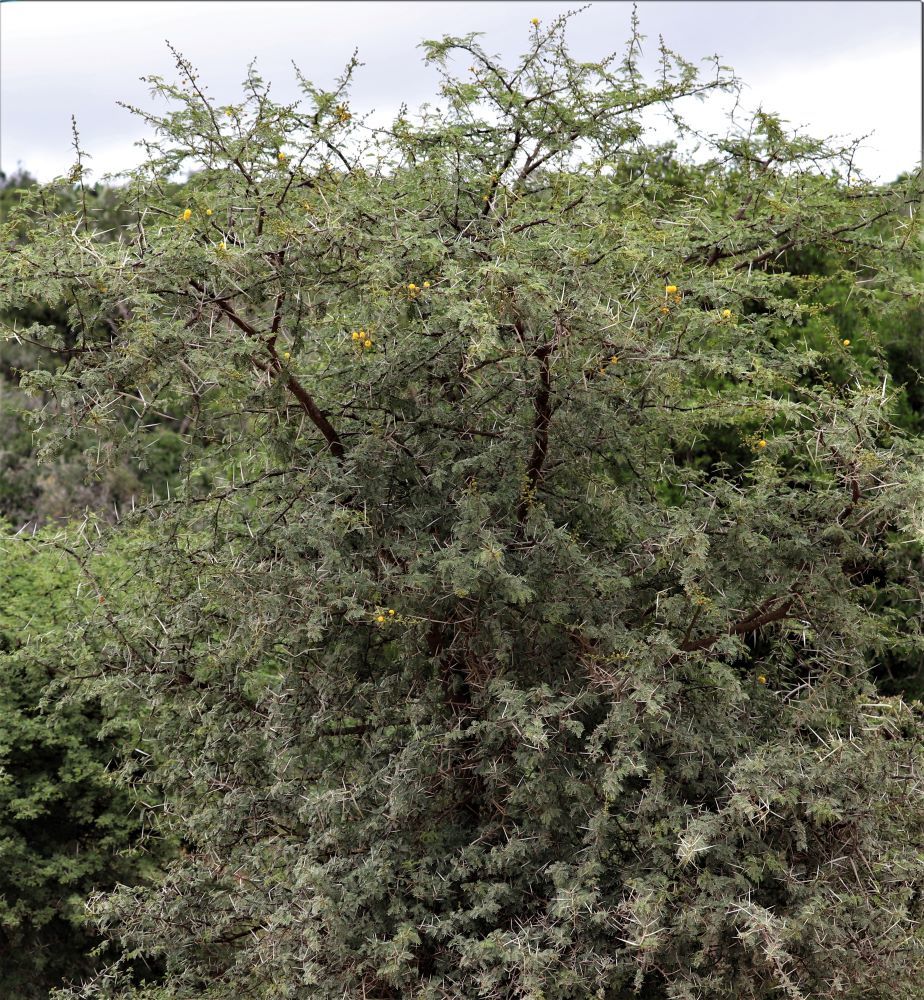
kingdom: Plantae
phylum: Tracheophyta
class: Magnoliopsida
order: Fabales
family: Fabaceae
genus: Vachellia
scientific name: Vachellia karroo
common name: Sweet thorn
